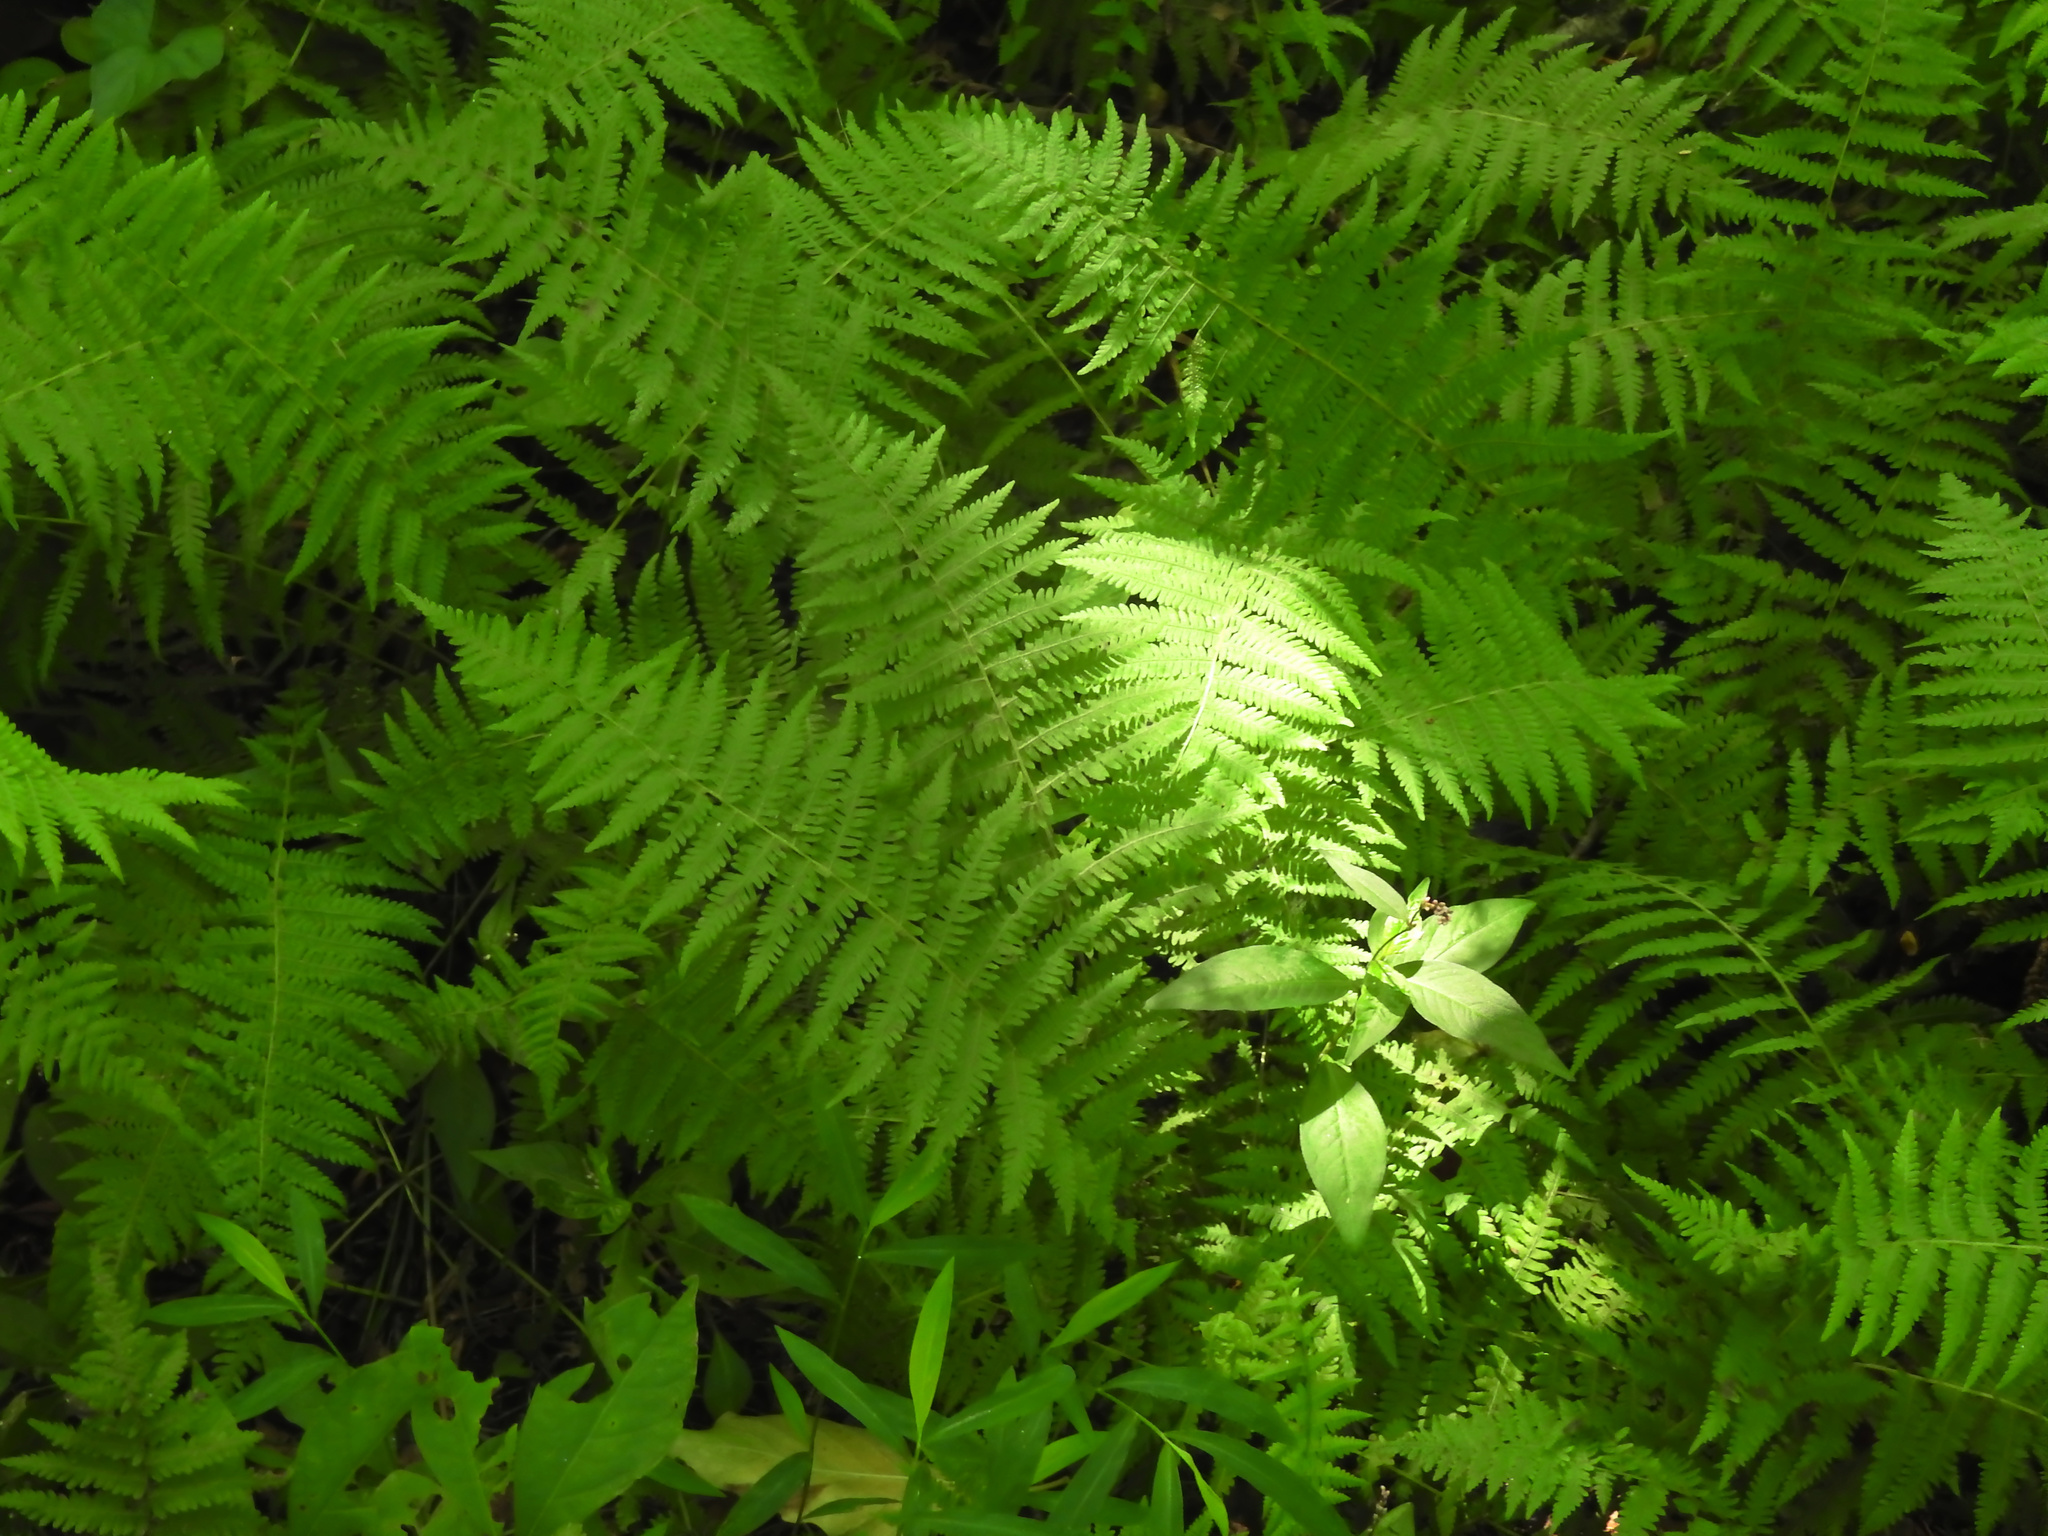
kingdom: Plantae
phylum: Tracheophyta
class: Polypodiopsida
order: Polypodiales
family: Thelypteridaceae
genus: Amauropelta
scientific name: Amauropelta noveboracensis
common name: New york fern
